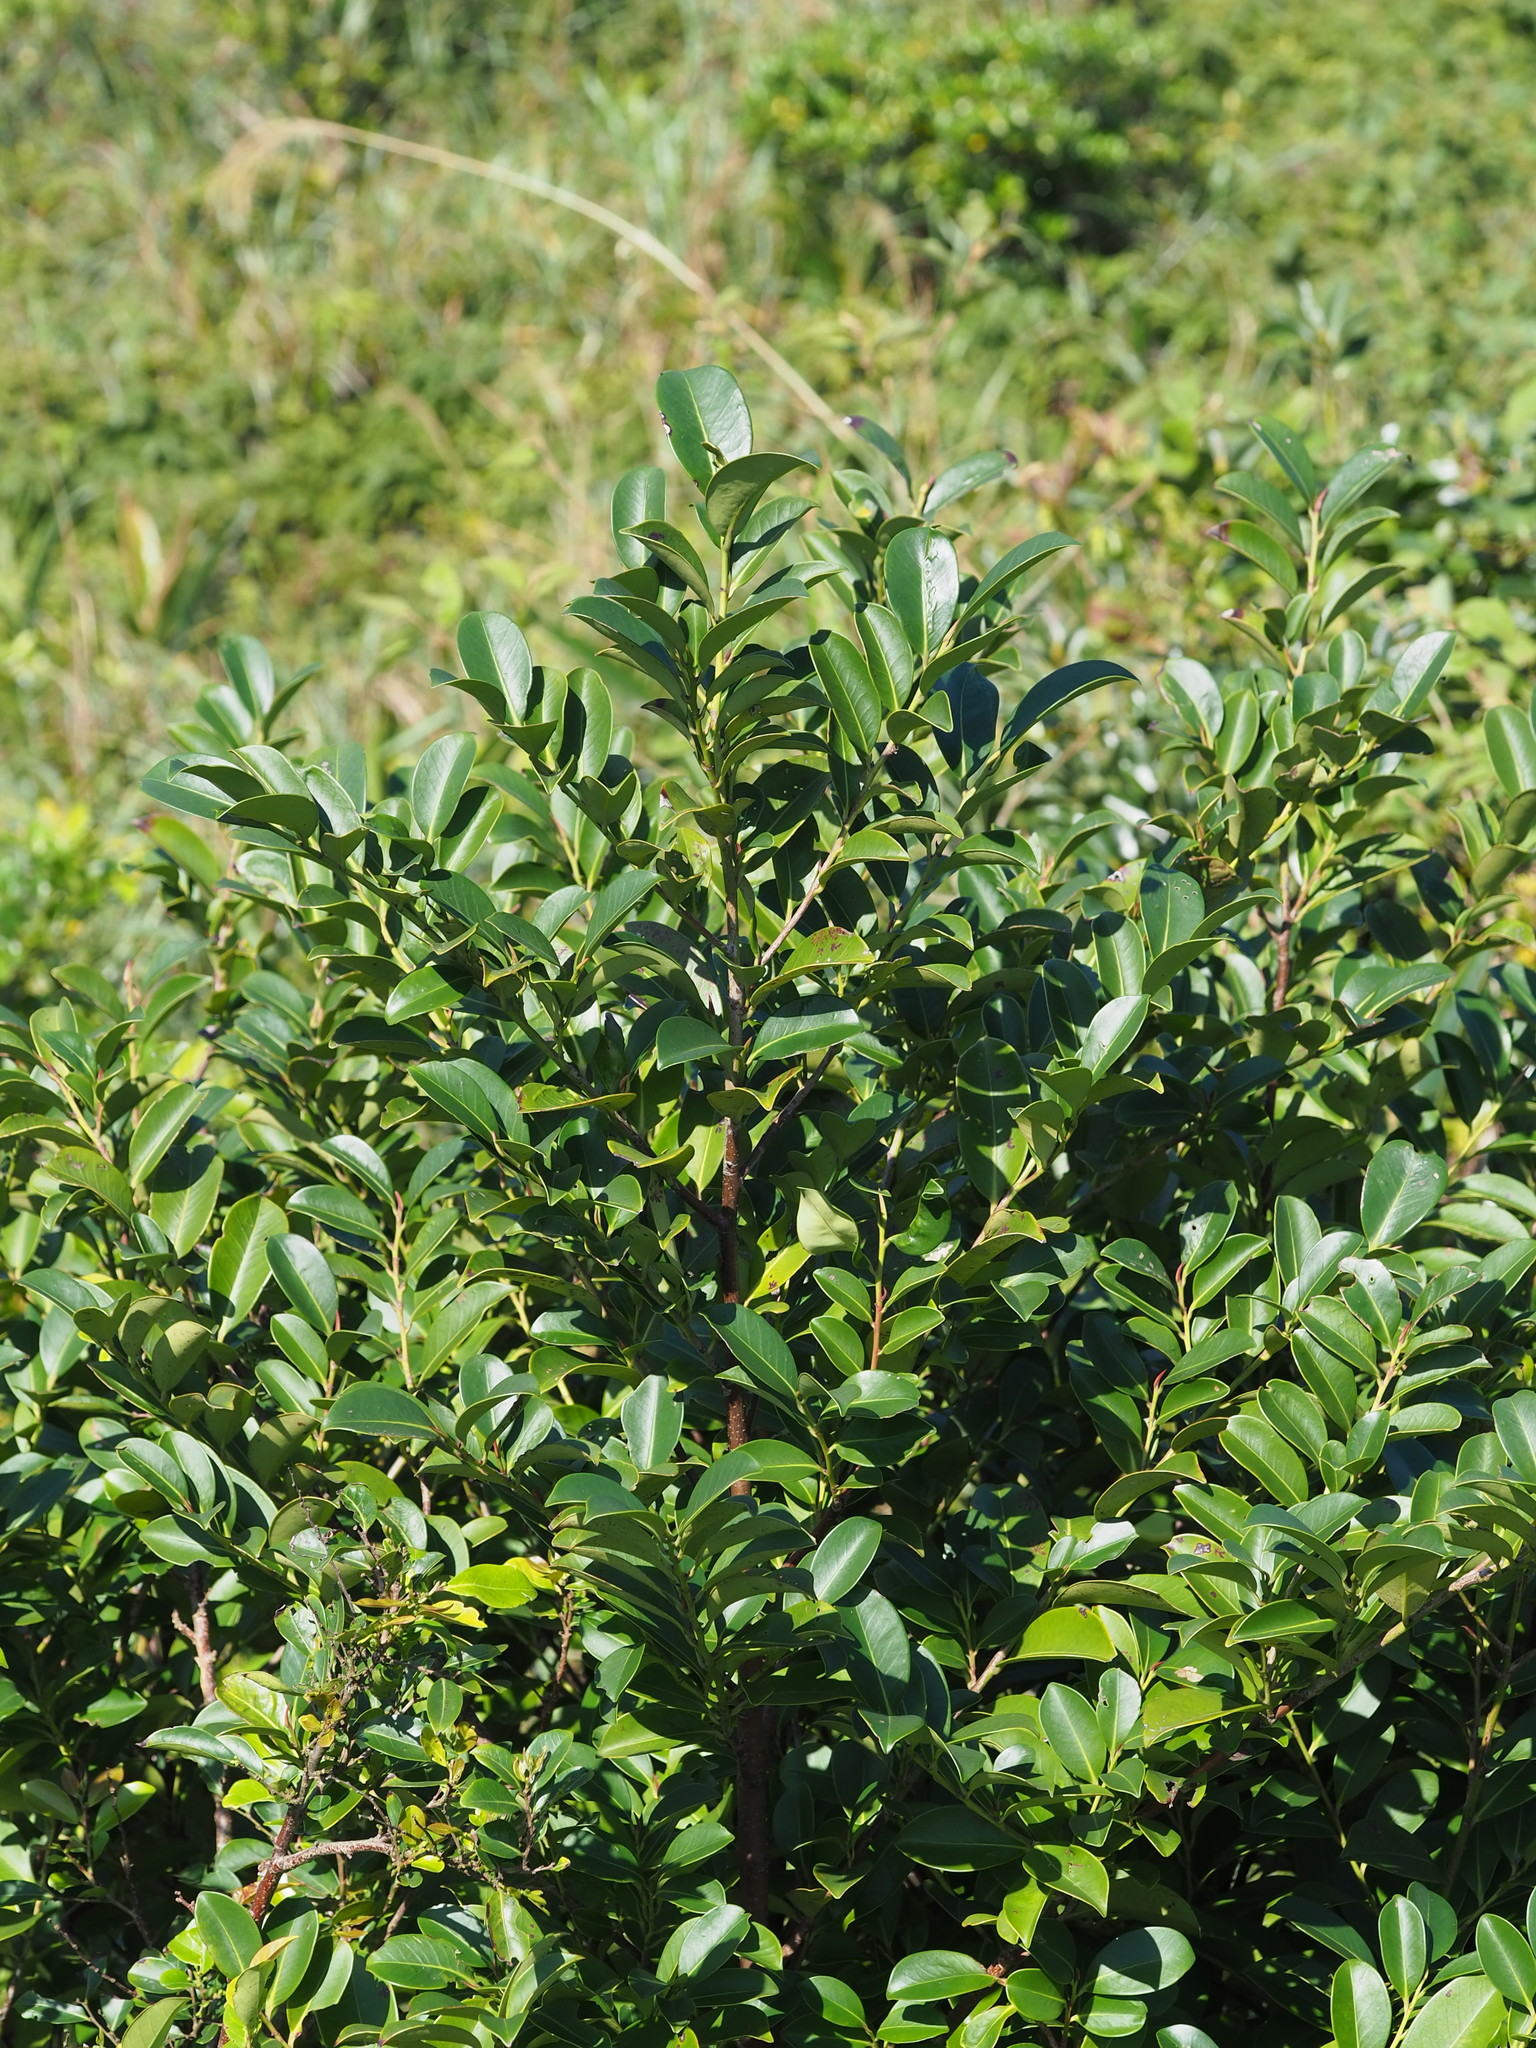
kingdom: Plantae
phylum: Tracheophyta
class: Magnoliopsida
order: Ericales
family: Pentaphylacaceae
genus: Cleyera
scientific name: Cleyera japonica
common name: Sakaki
